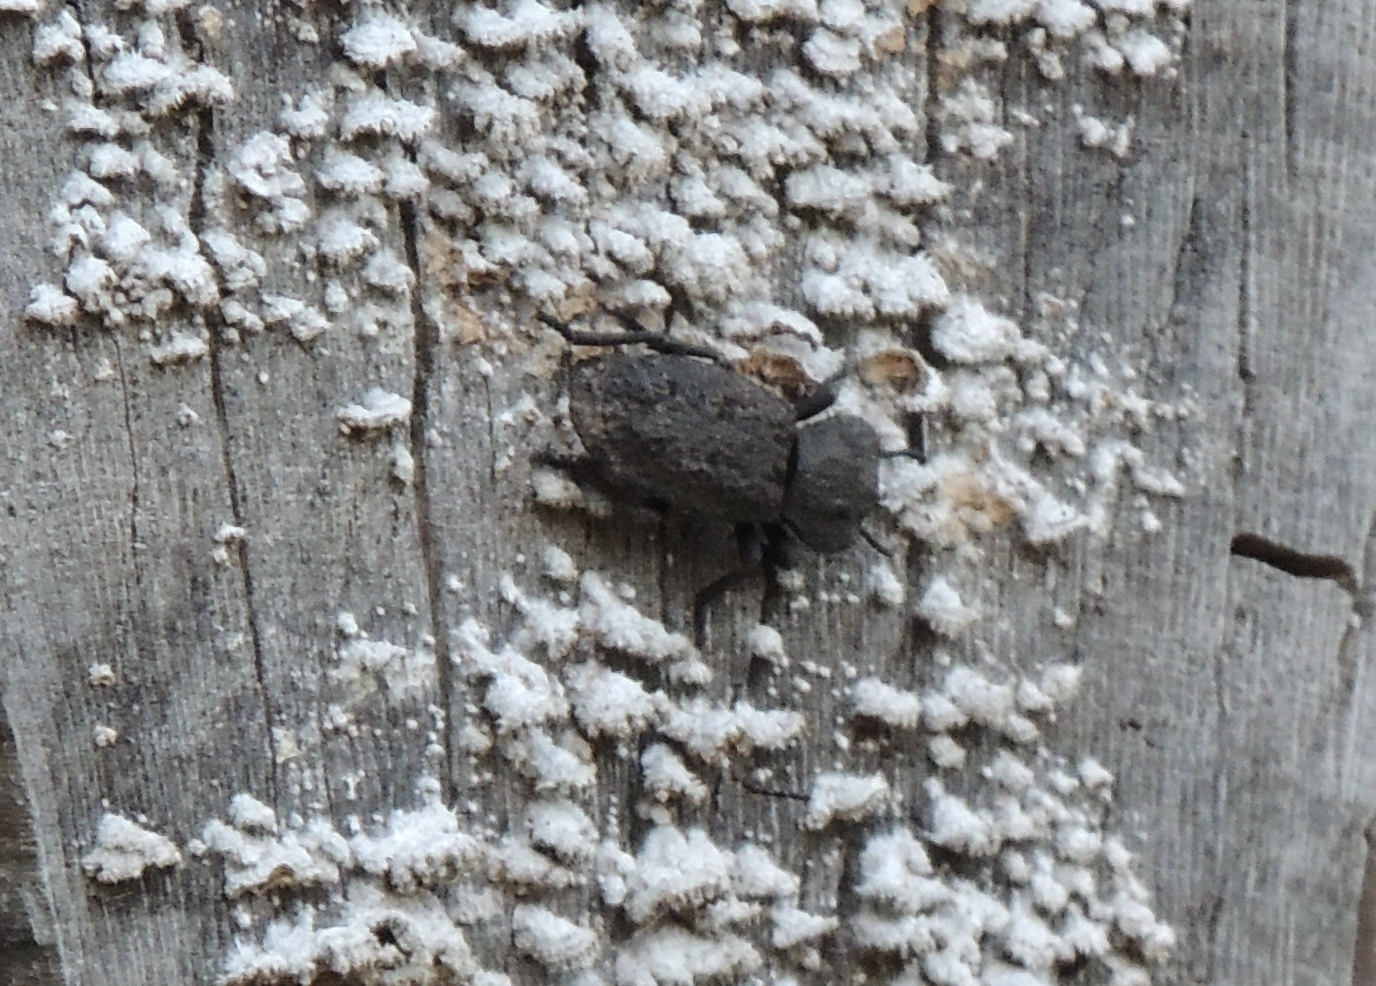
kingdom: Animalia
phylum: Arthropoda
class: Insecta
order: Coleoptera
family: Zopheridae
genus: Phloeodes
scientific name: Phloeodes diabolicus
